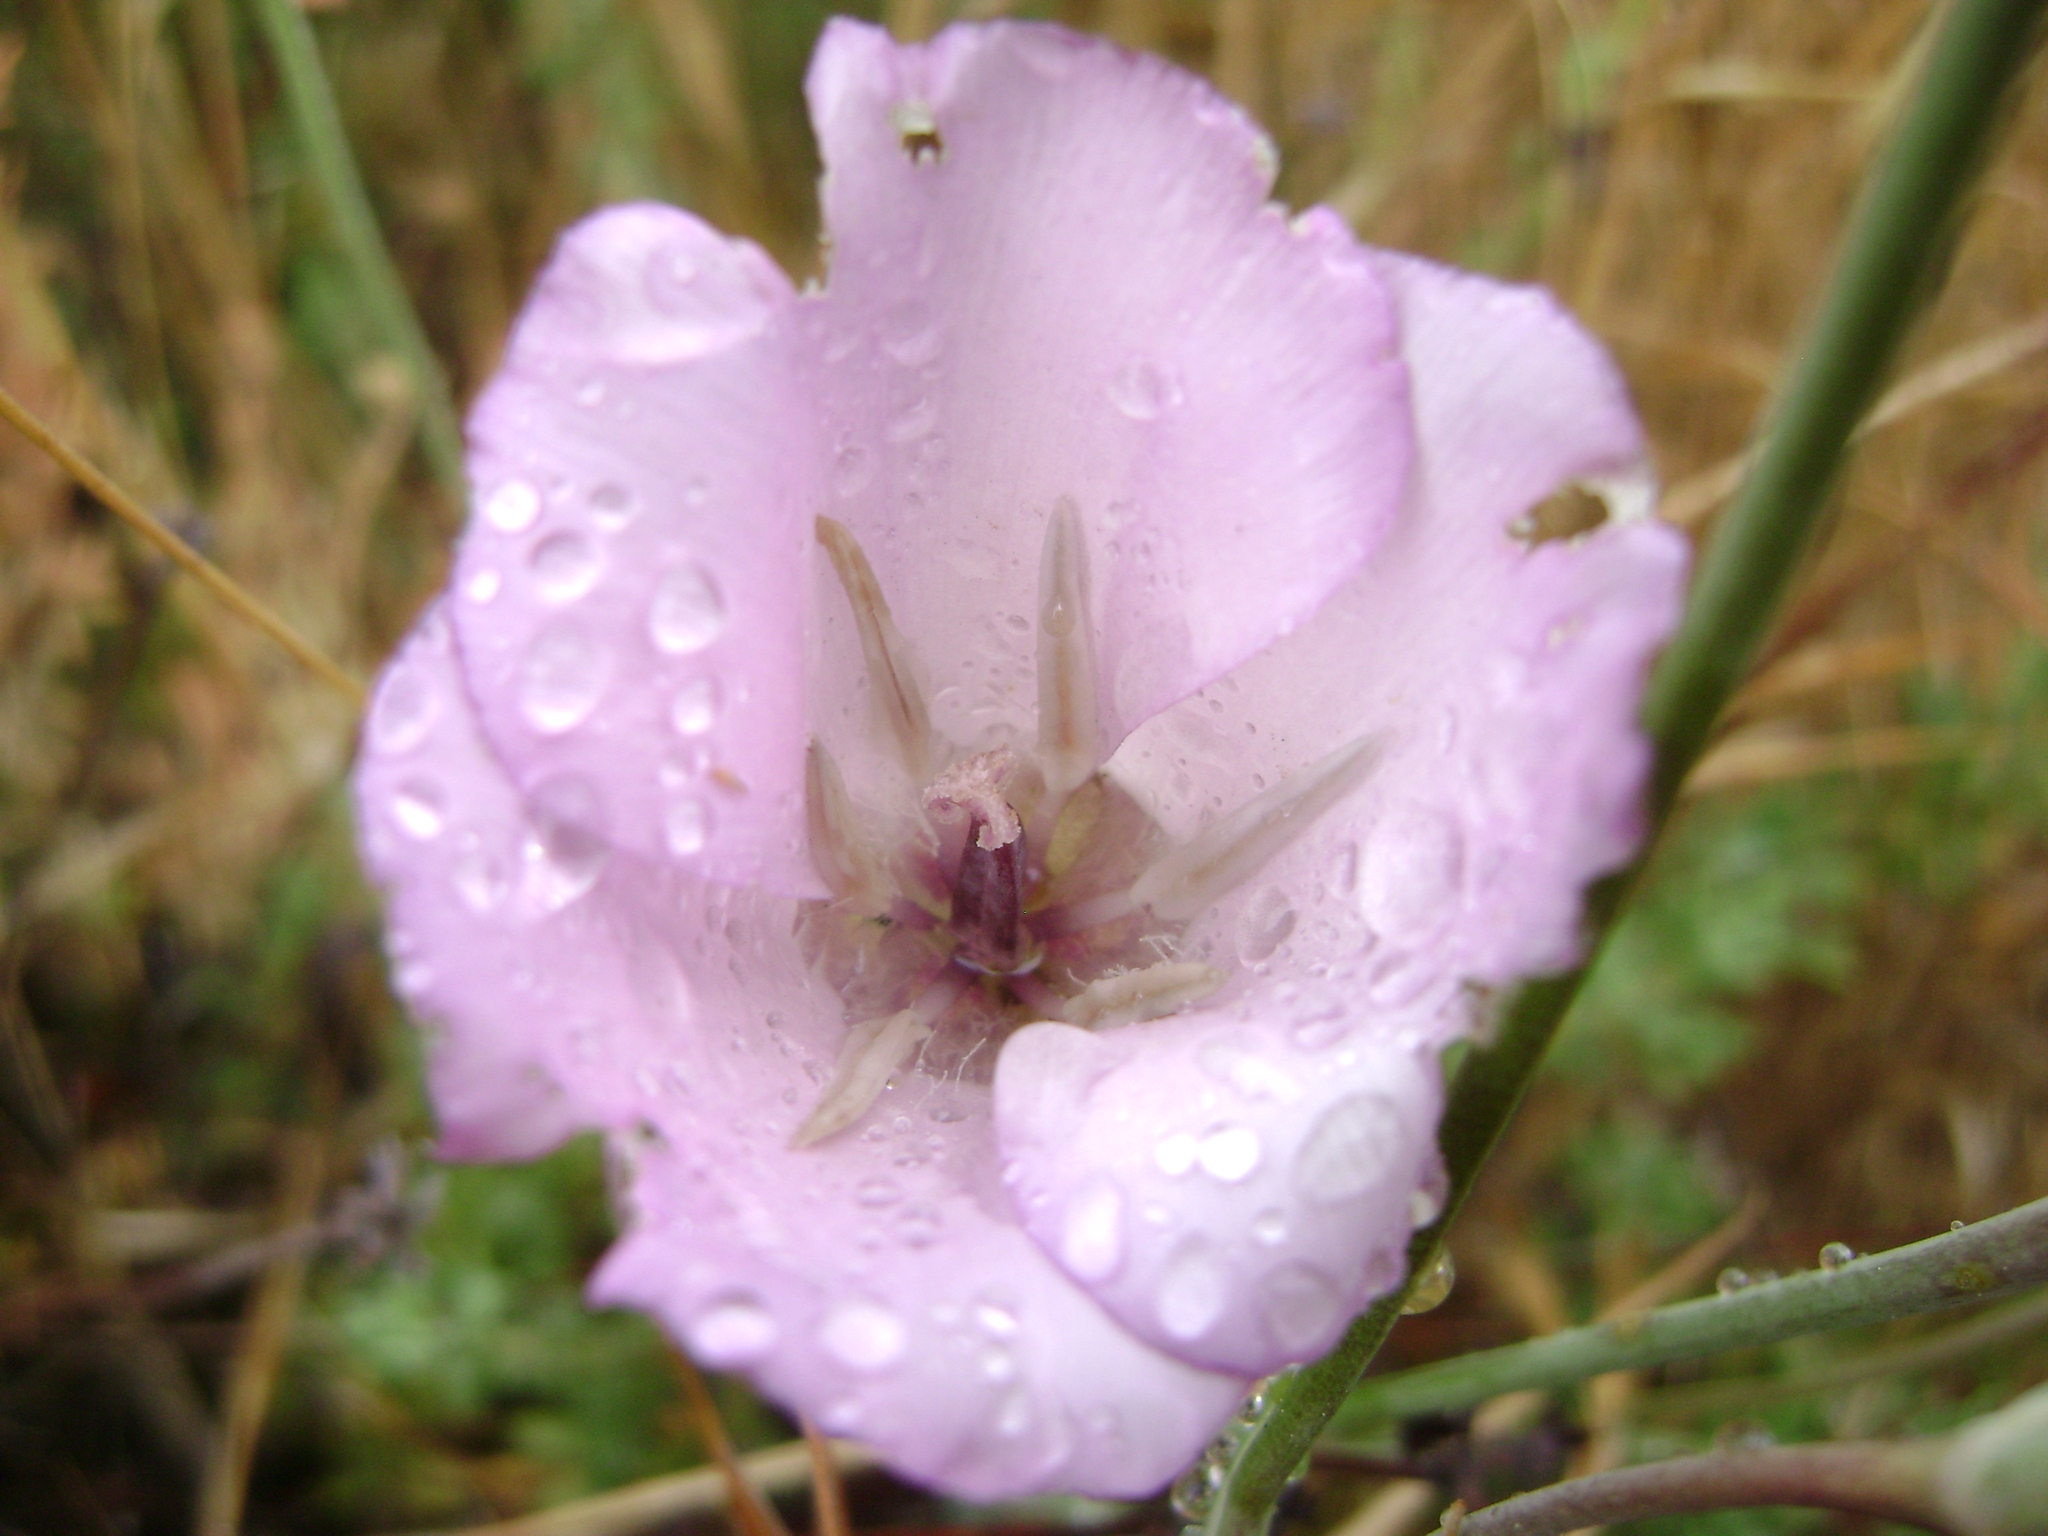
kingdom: Plantae
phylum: Tracheophyta
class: Liliopsida
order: Liliales
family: Liliaceae
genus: Calochortus
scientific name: Calochortus splendens
